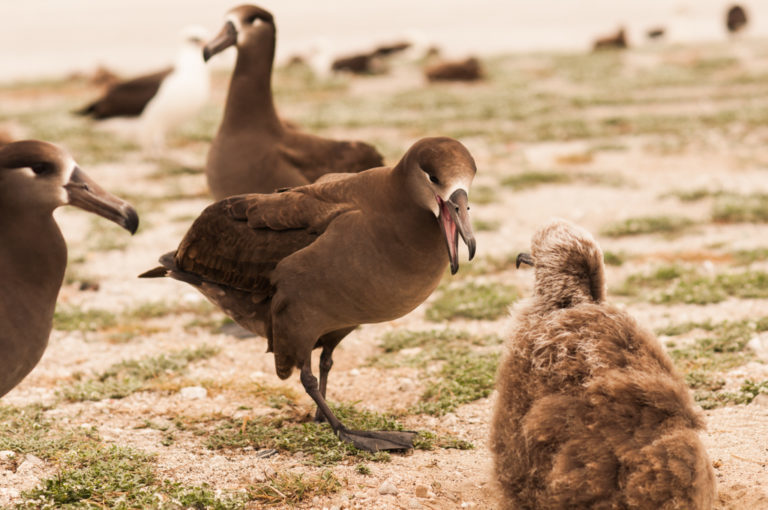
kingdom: Animalia
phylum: Chordata
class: Aves
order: Procellariiformes
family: Diomedeidae
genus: Phoebastria
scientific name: Phoebastria nigripes
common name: Black-footed albatross
